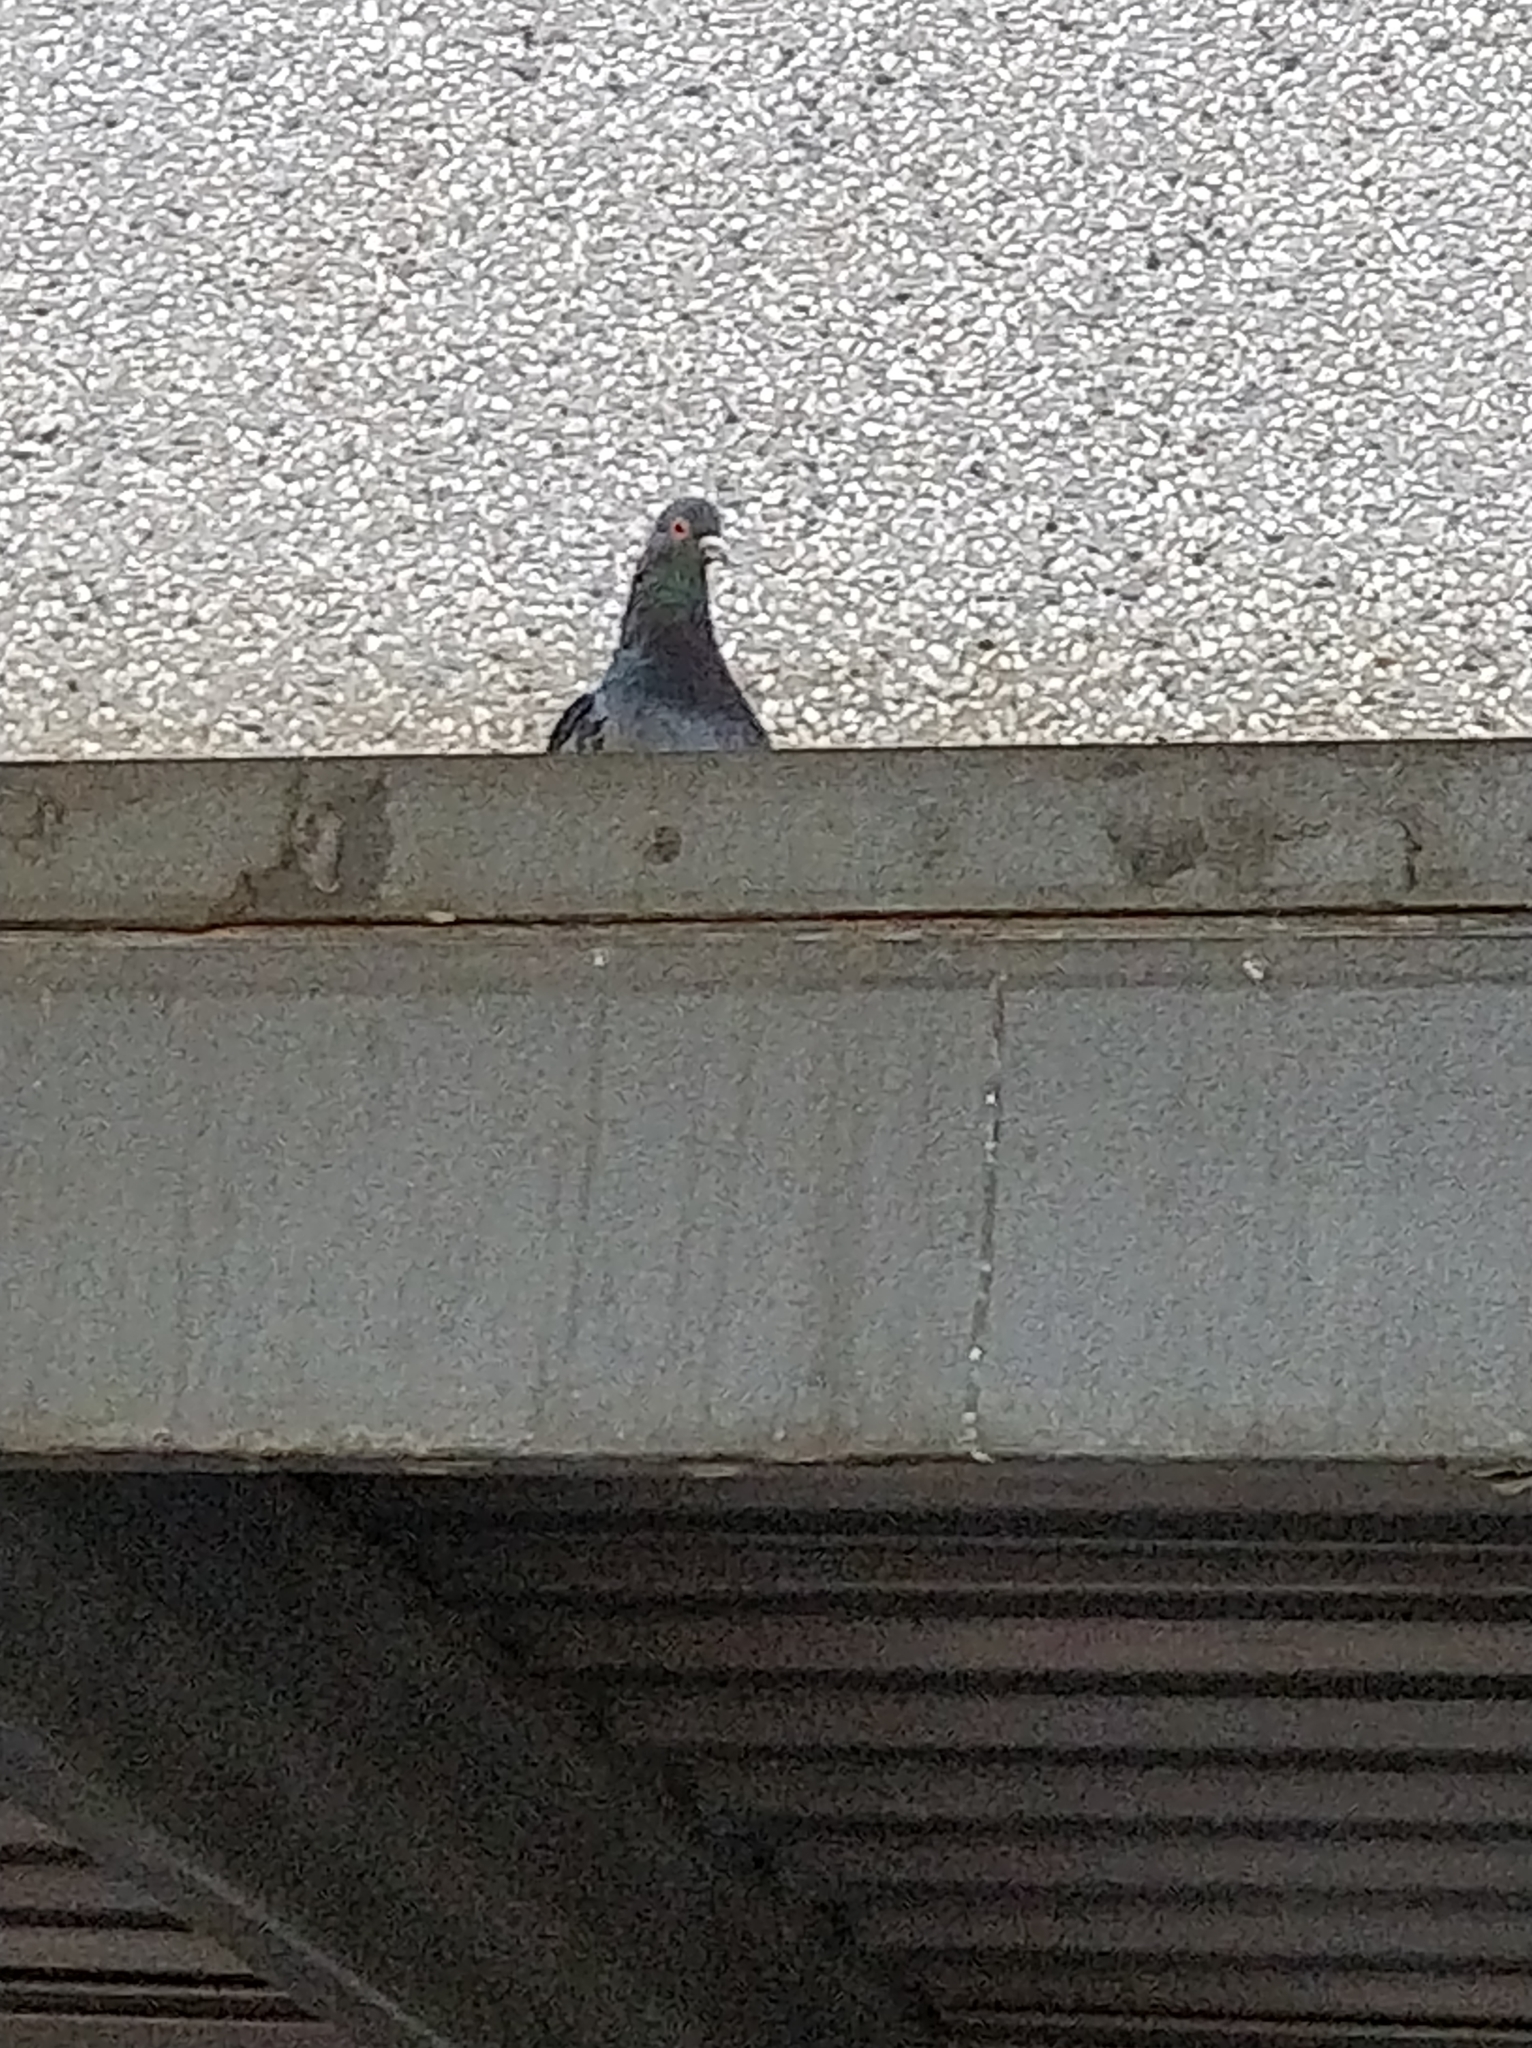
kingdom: Animalia
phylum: Chordata
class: Aves
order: Columbiformes
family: Columbidae
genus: Columba
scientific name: Columba livia
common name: Rock pigeon
